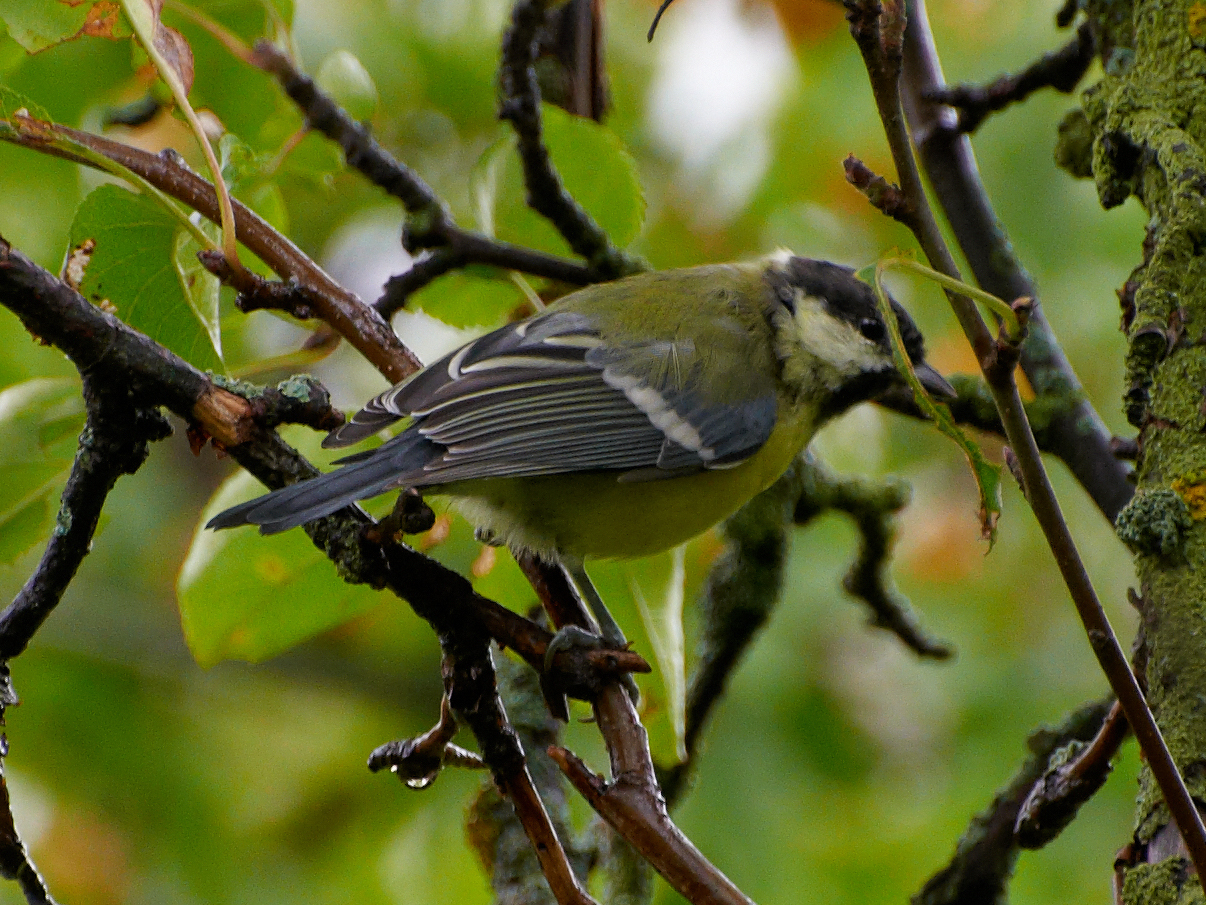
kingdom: Animalia
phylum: Chordata
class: Aves
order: Passeriformes
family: Paridae
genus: Parus
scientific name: Parus major
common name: Great tit
